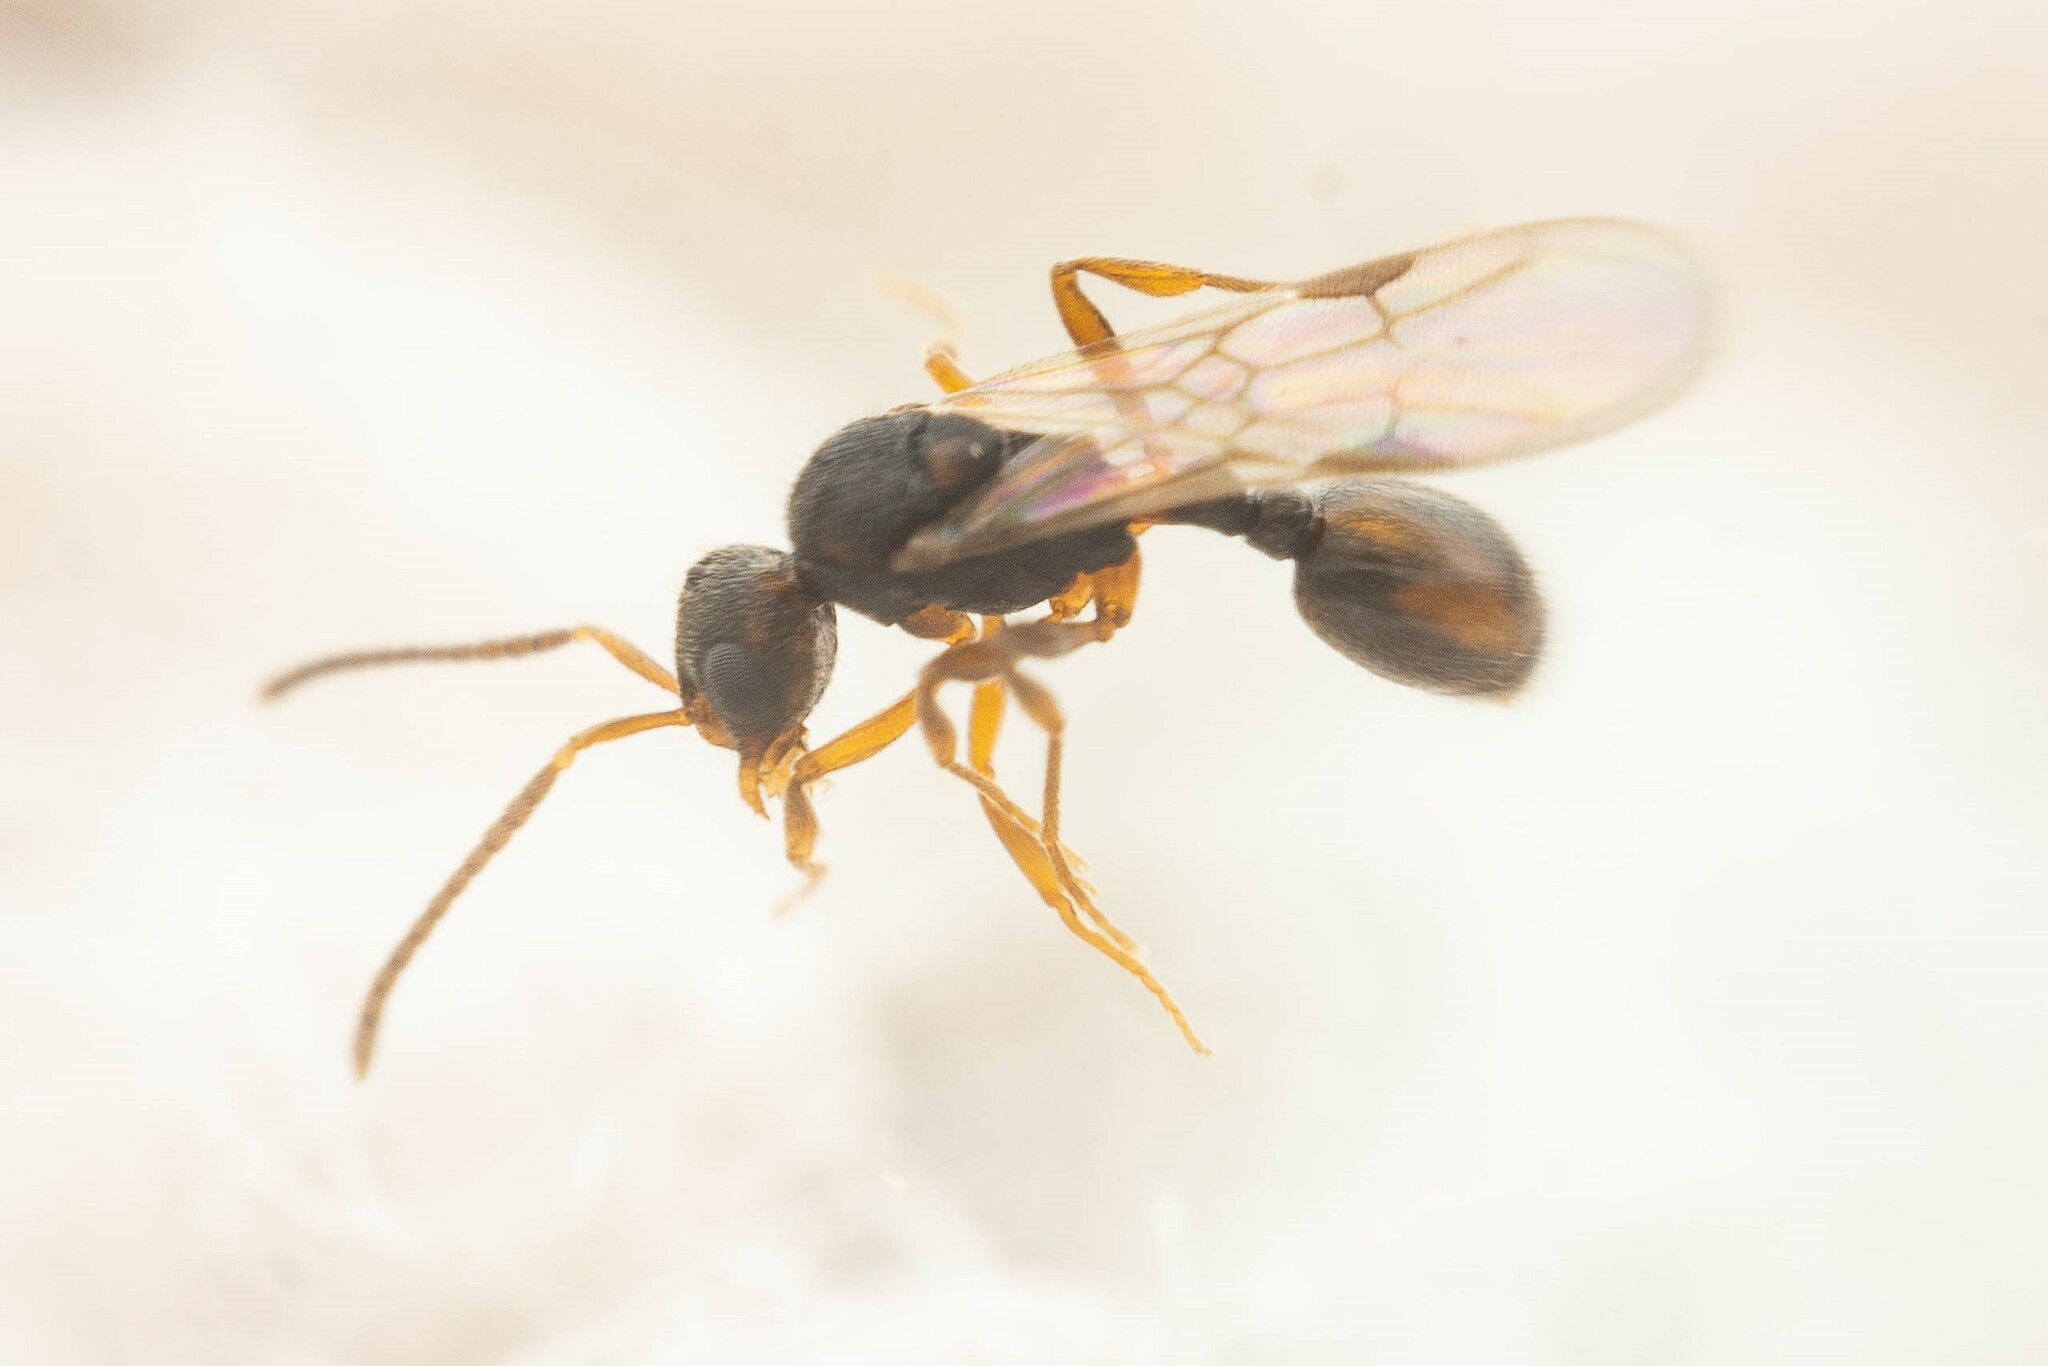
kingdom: Animalia
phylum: Arthropoda
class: Insecta
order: Hymenoptera
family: Formicidae
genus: Rogeria
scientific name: Rogeria foreli
